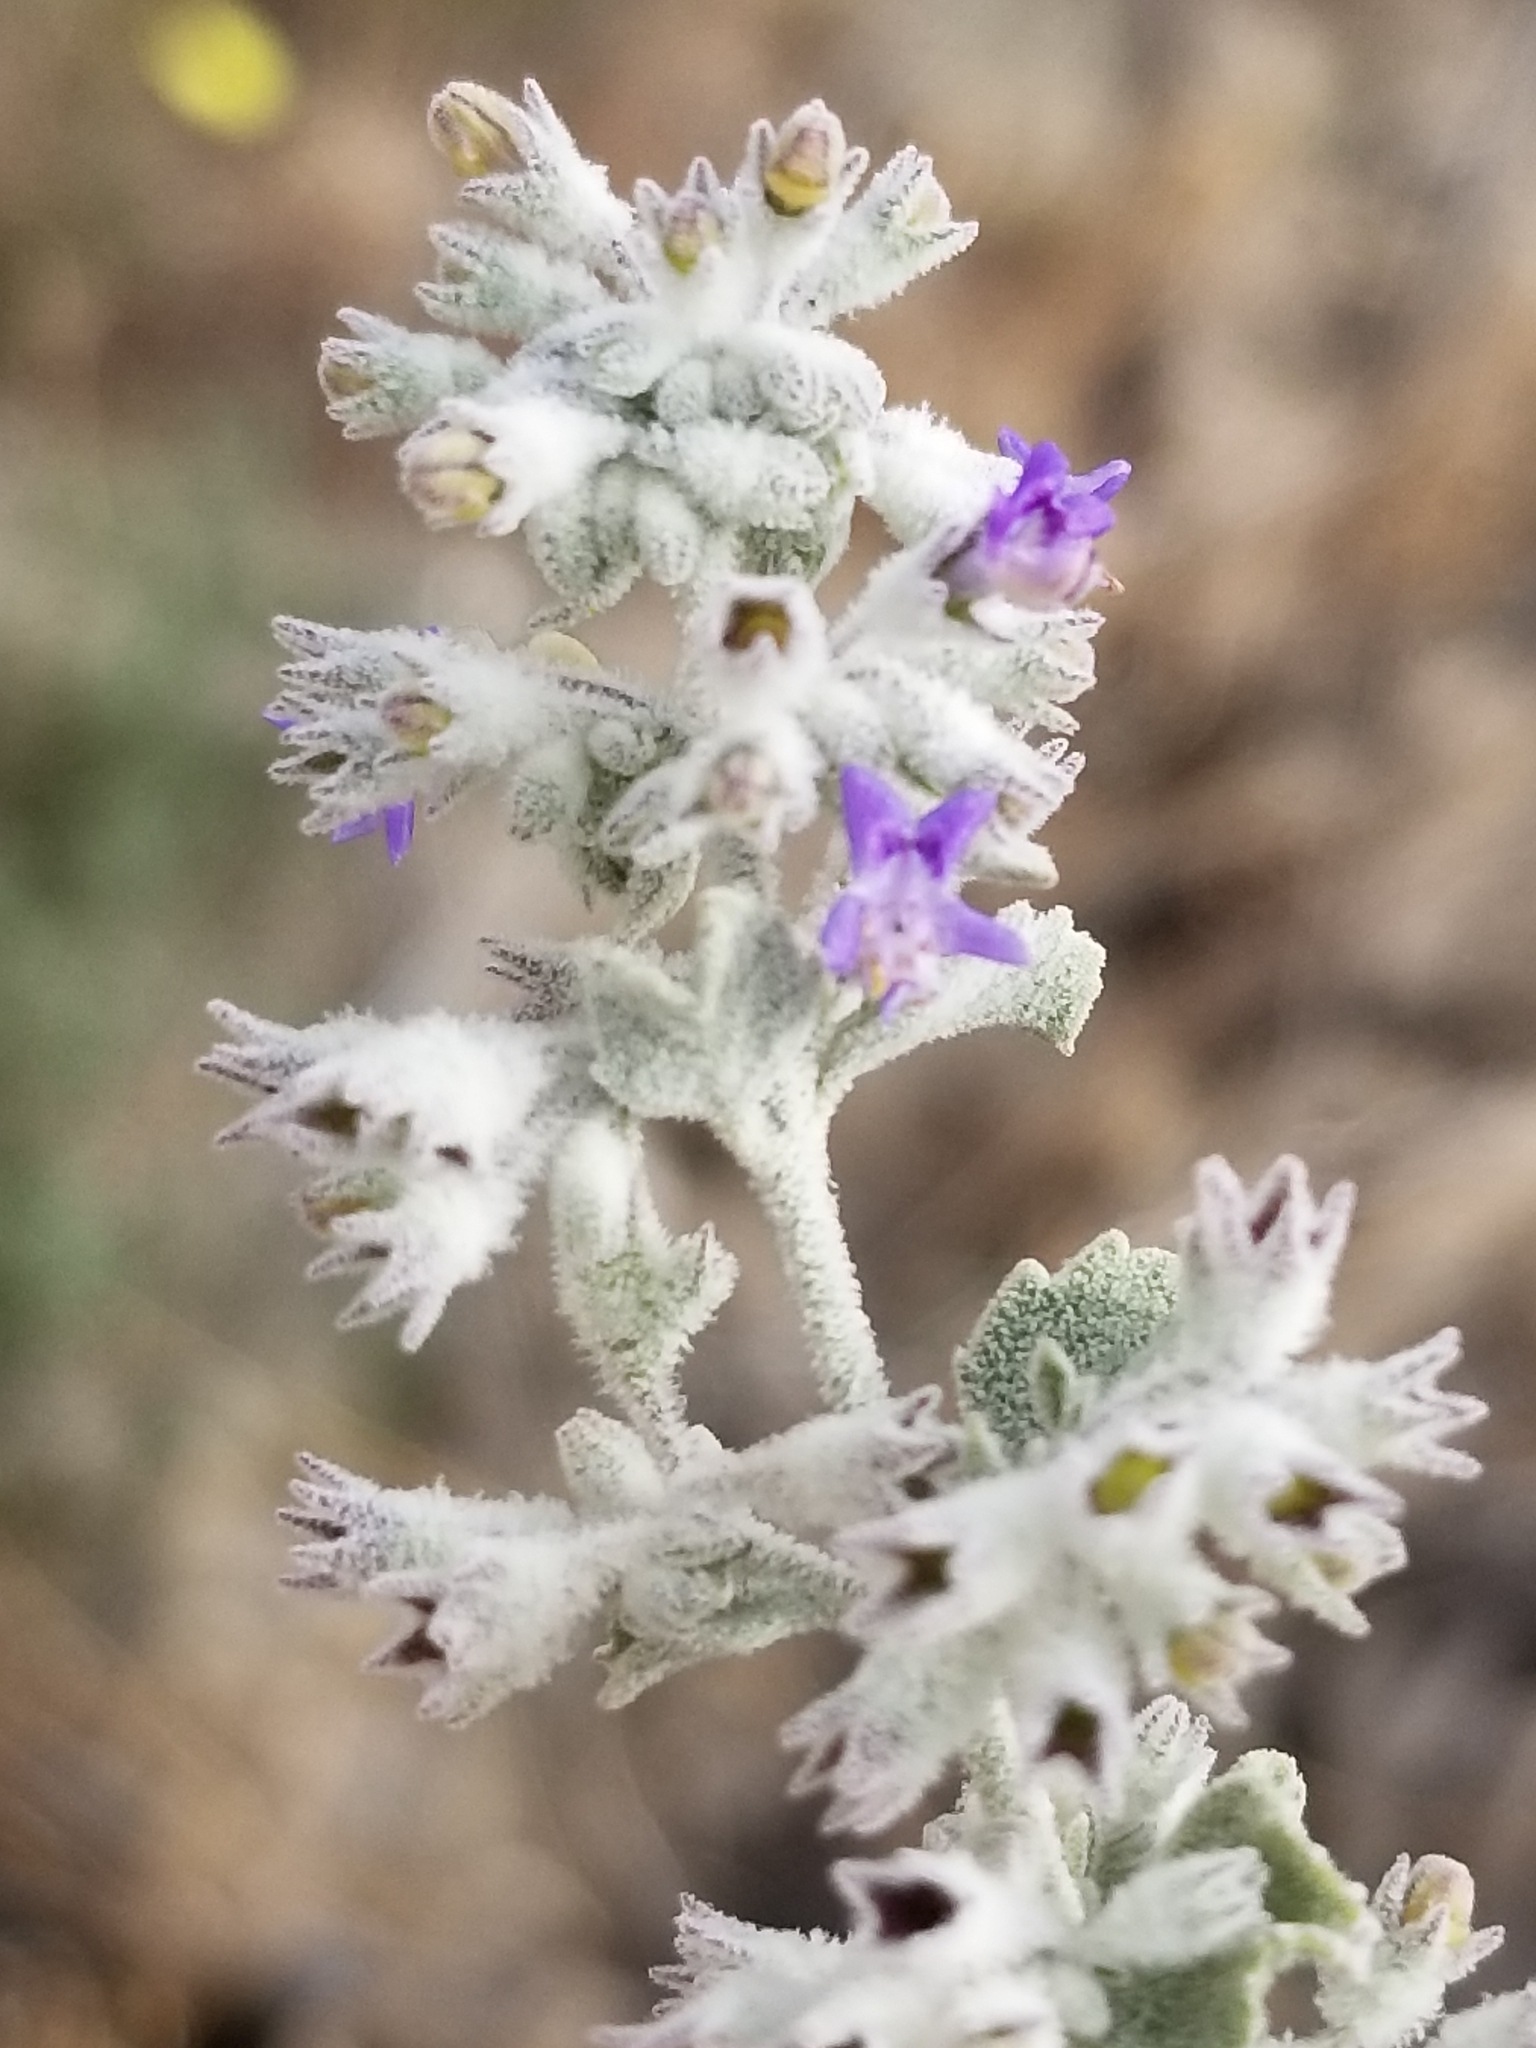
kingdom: Plantae
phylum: Tracheophyta
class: Magnoliopsida
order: Lamiales
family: Lamiaceae
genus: Condea
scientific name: Condea emoryi
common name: Chia
